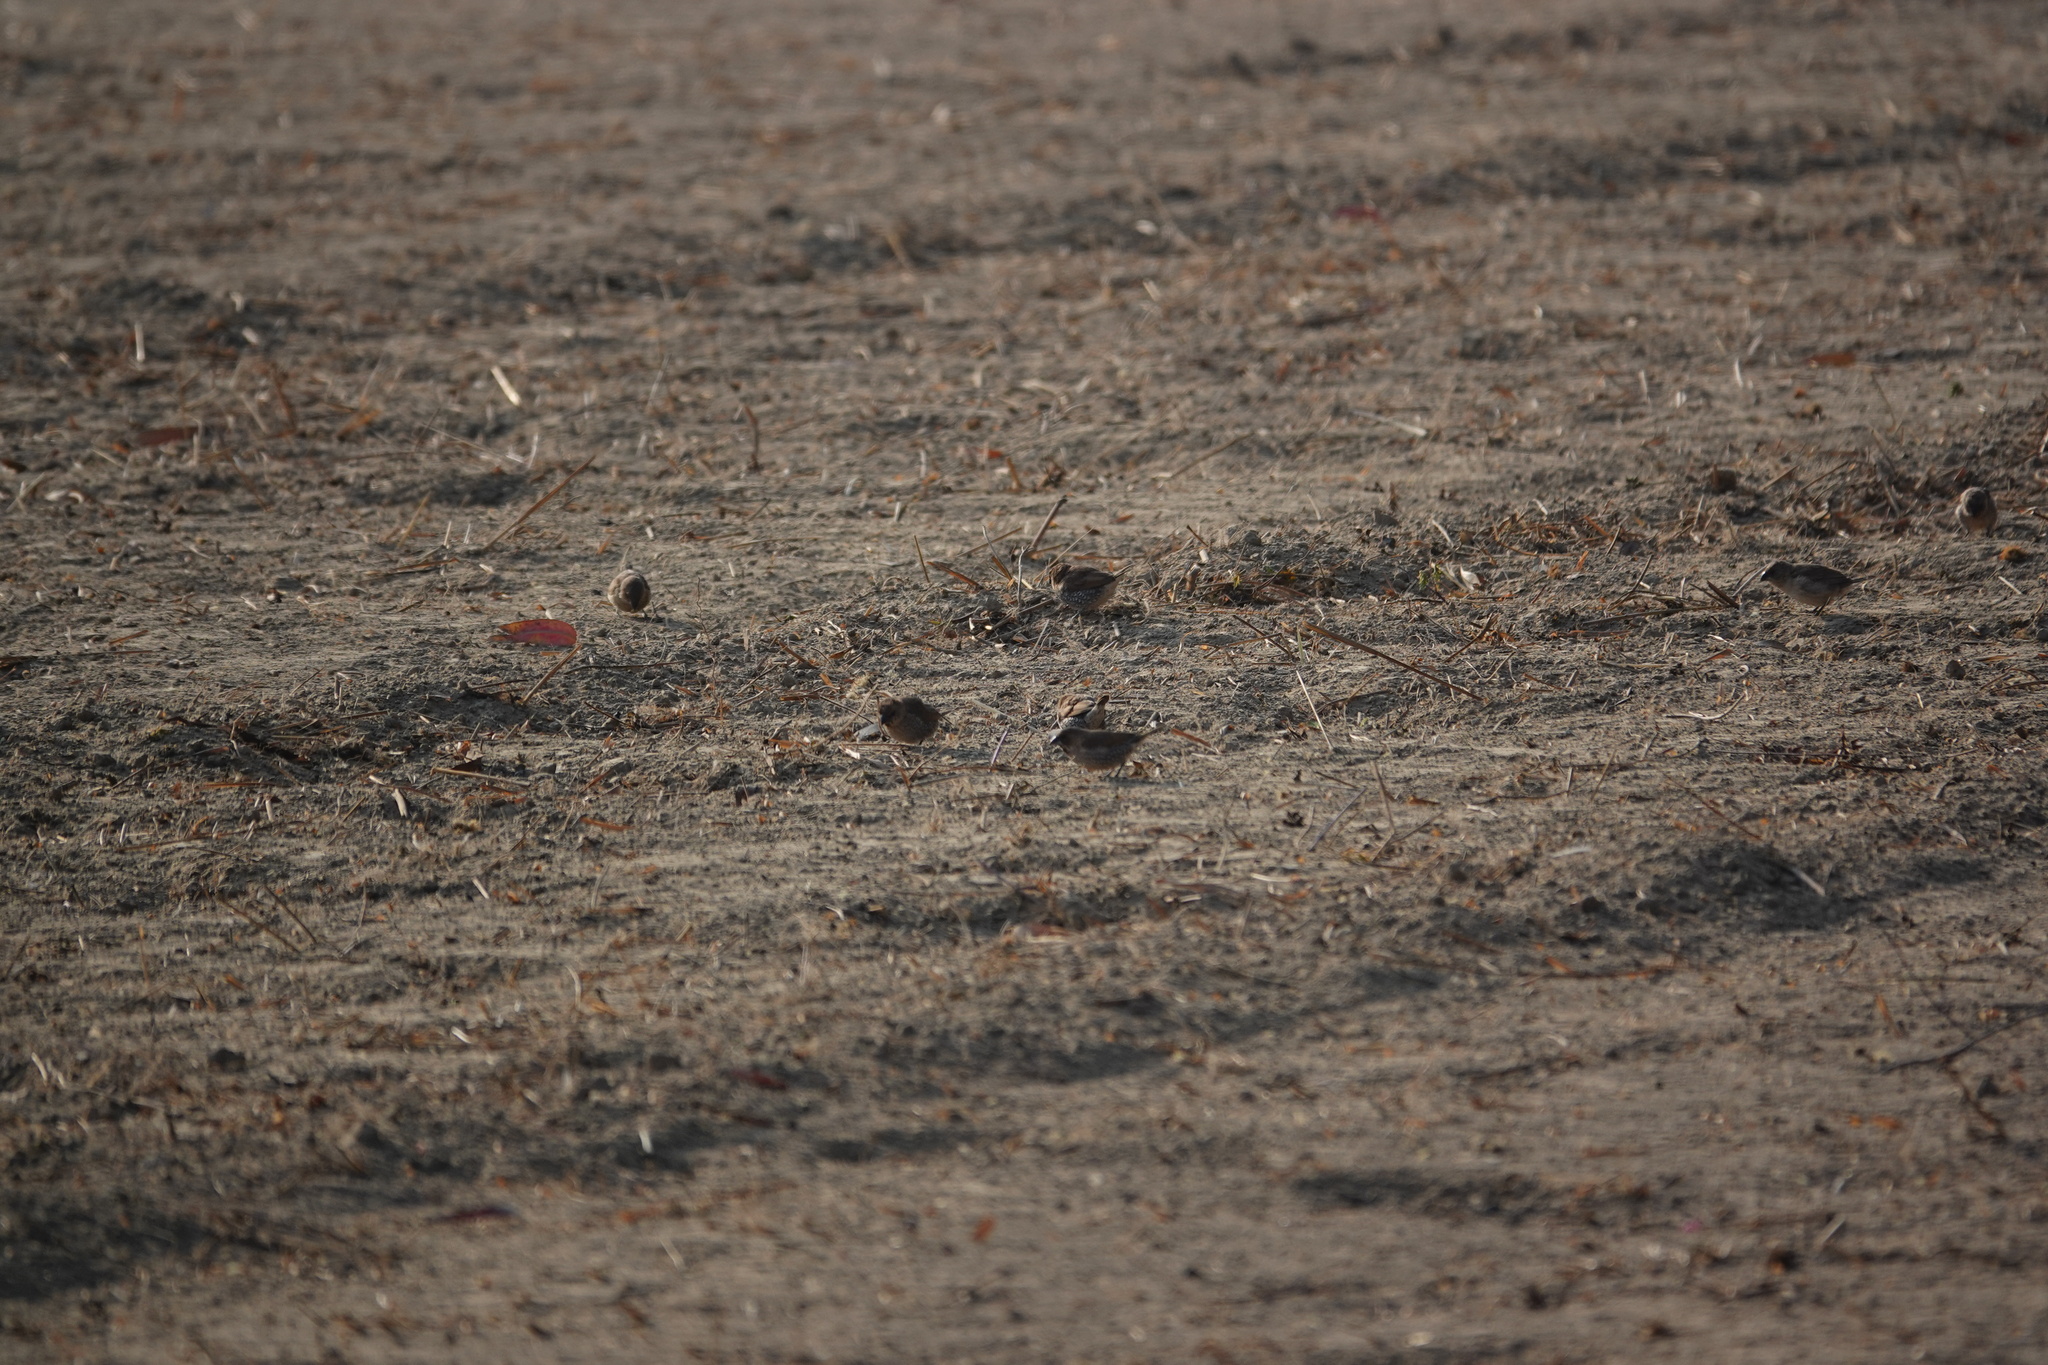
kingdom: Animalia
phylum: Chordata
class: Aves
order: Passeriformes
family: Estrildidae
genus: Lonchura
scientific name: Lonchura punctulata
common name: Scaly-breasted munia
